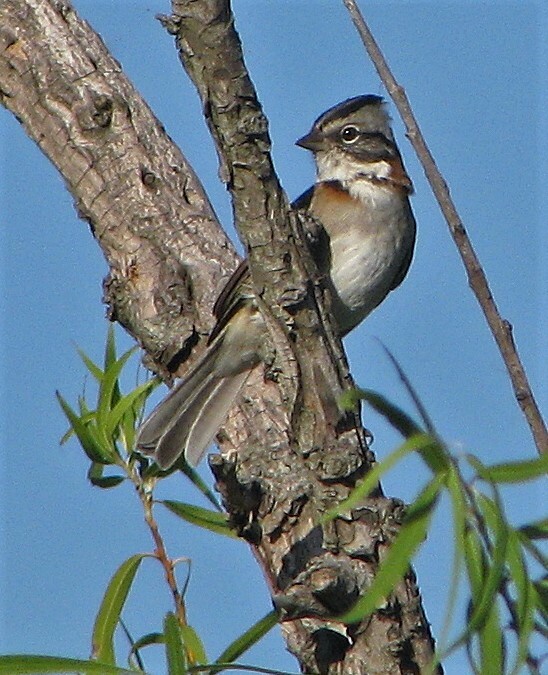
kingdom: Animalia
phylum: Chordata
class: Aves
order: Passeriformes
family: Passerellidae
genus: Zonotrichia
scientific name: Zonotrichia capensis
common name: Rufous-collared sparrow
